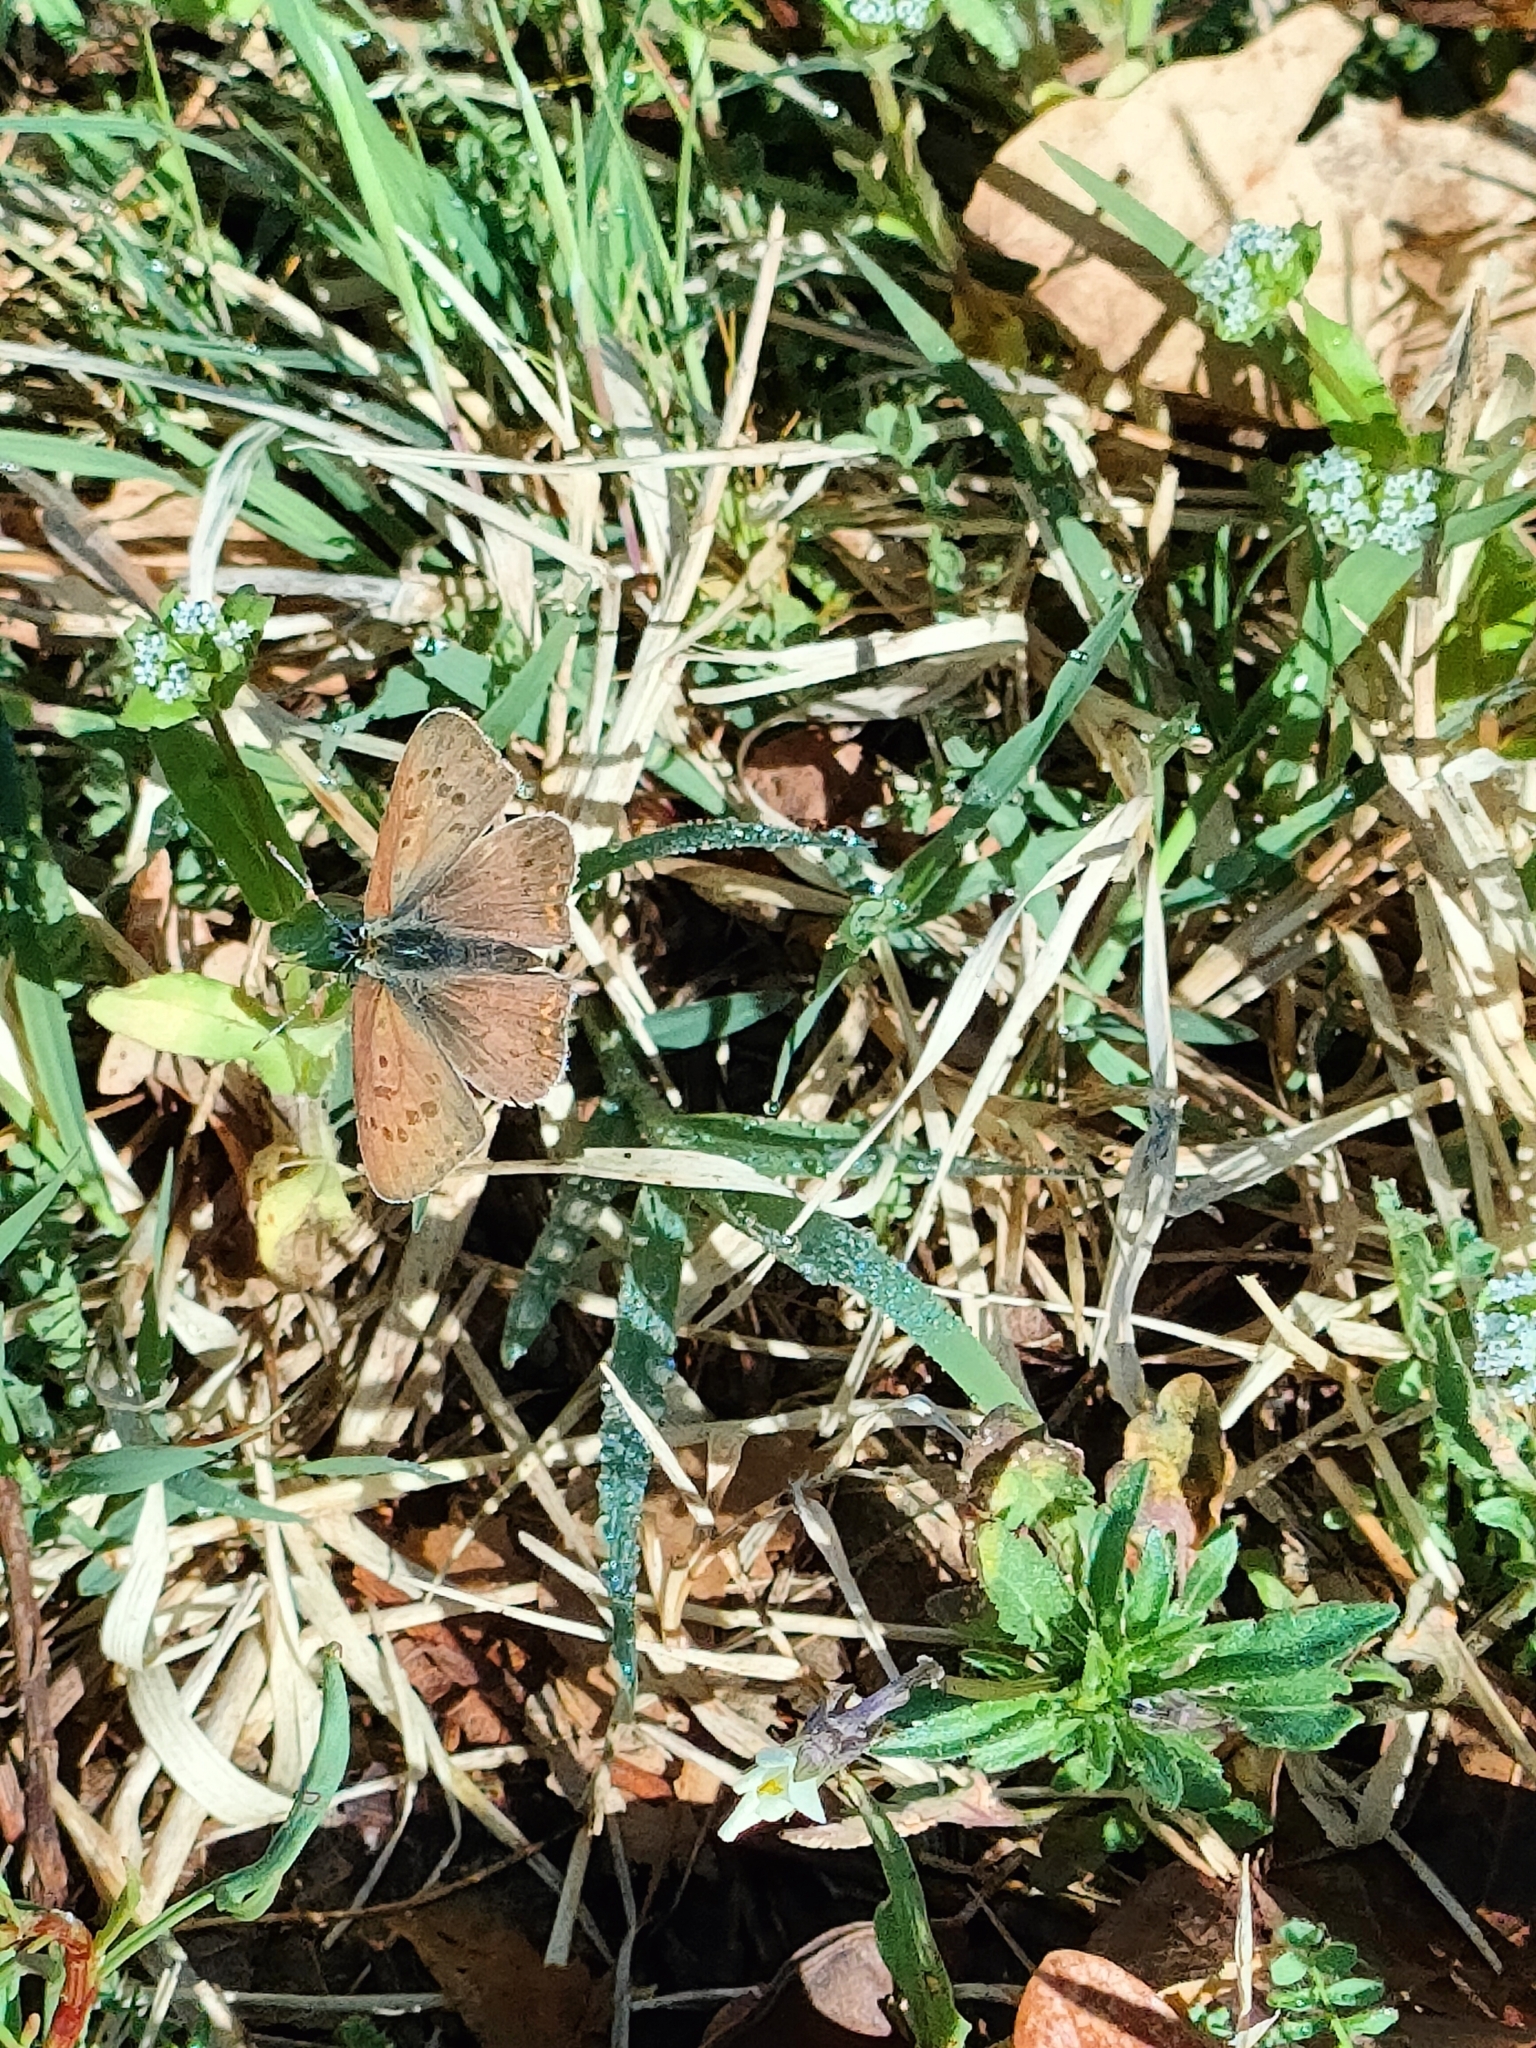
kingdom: Animalia
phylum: Arthropoda
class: Insecta
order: Lepidoptera
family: Lycaenidae
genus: Loweia
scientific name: Loweia tityrus
